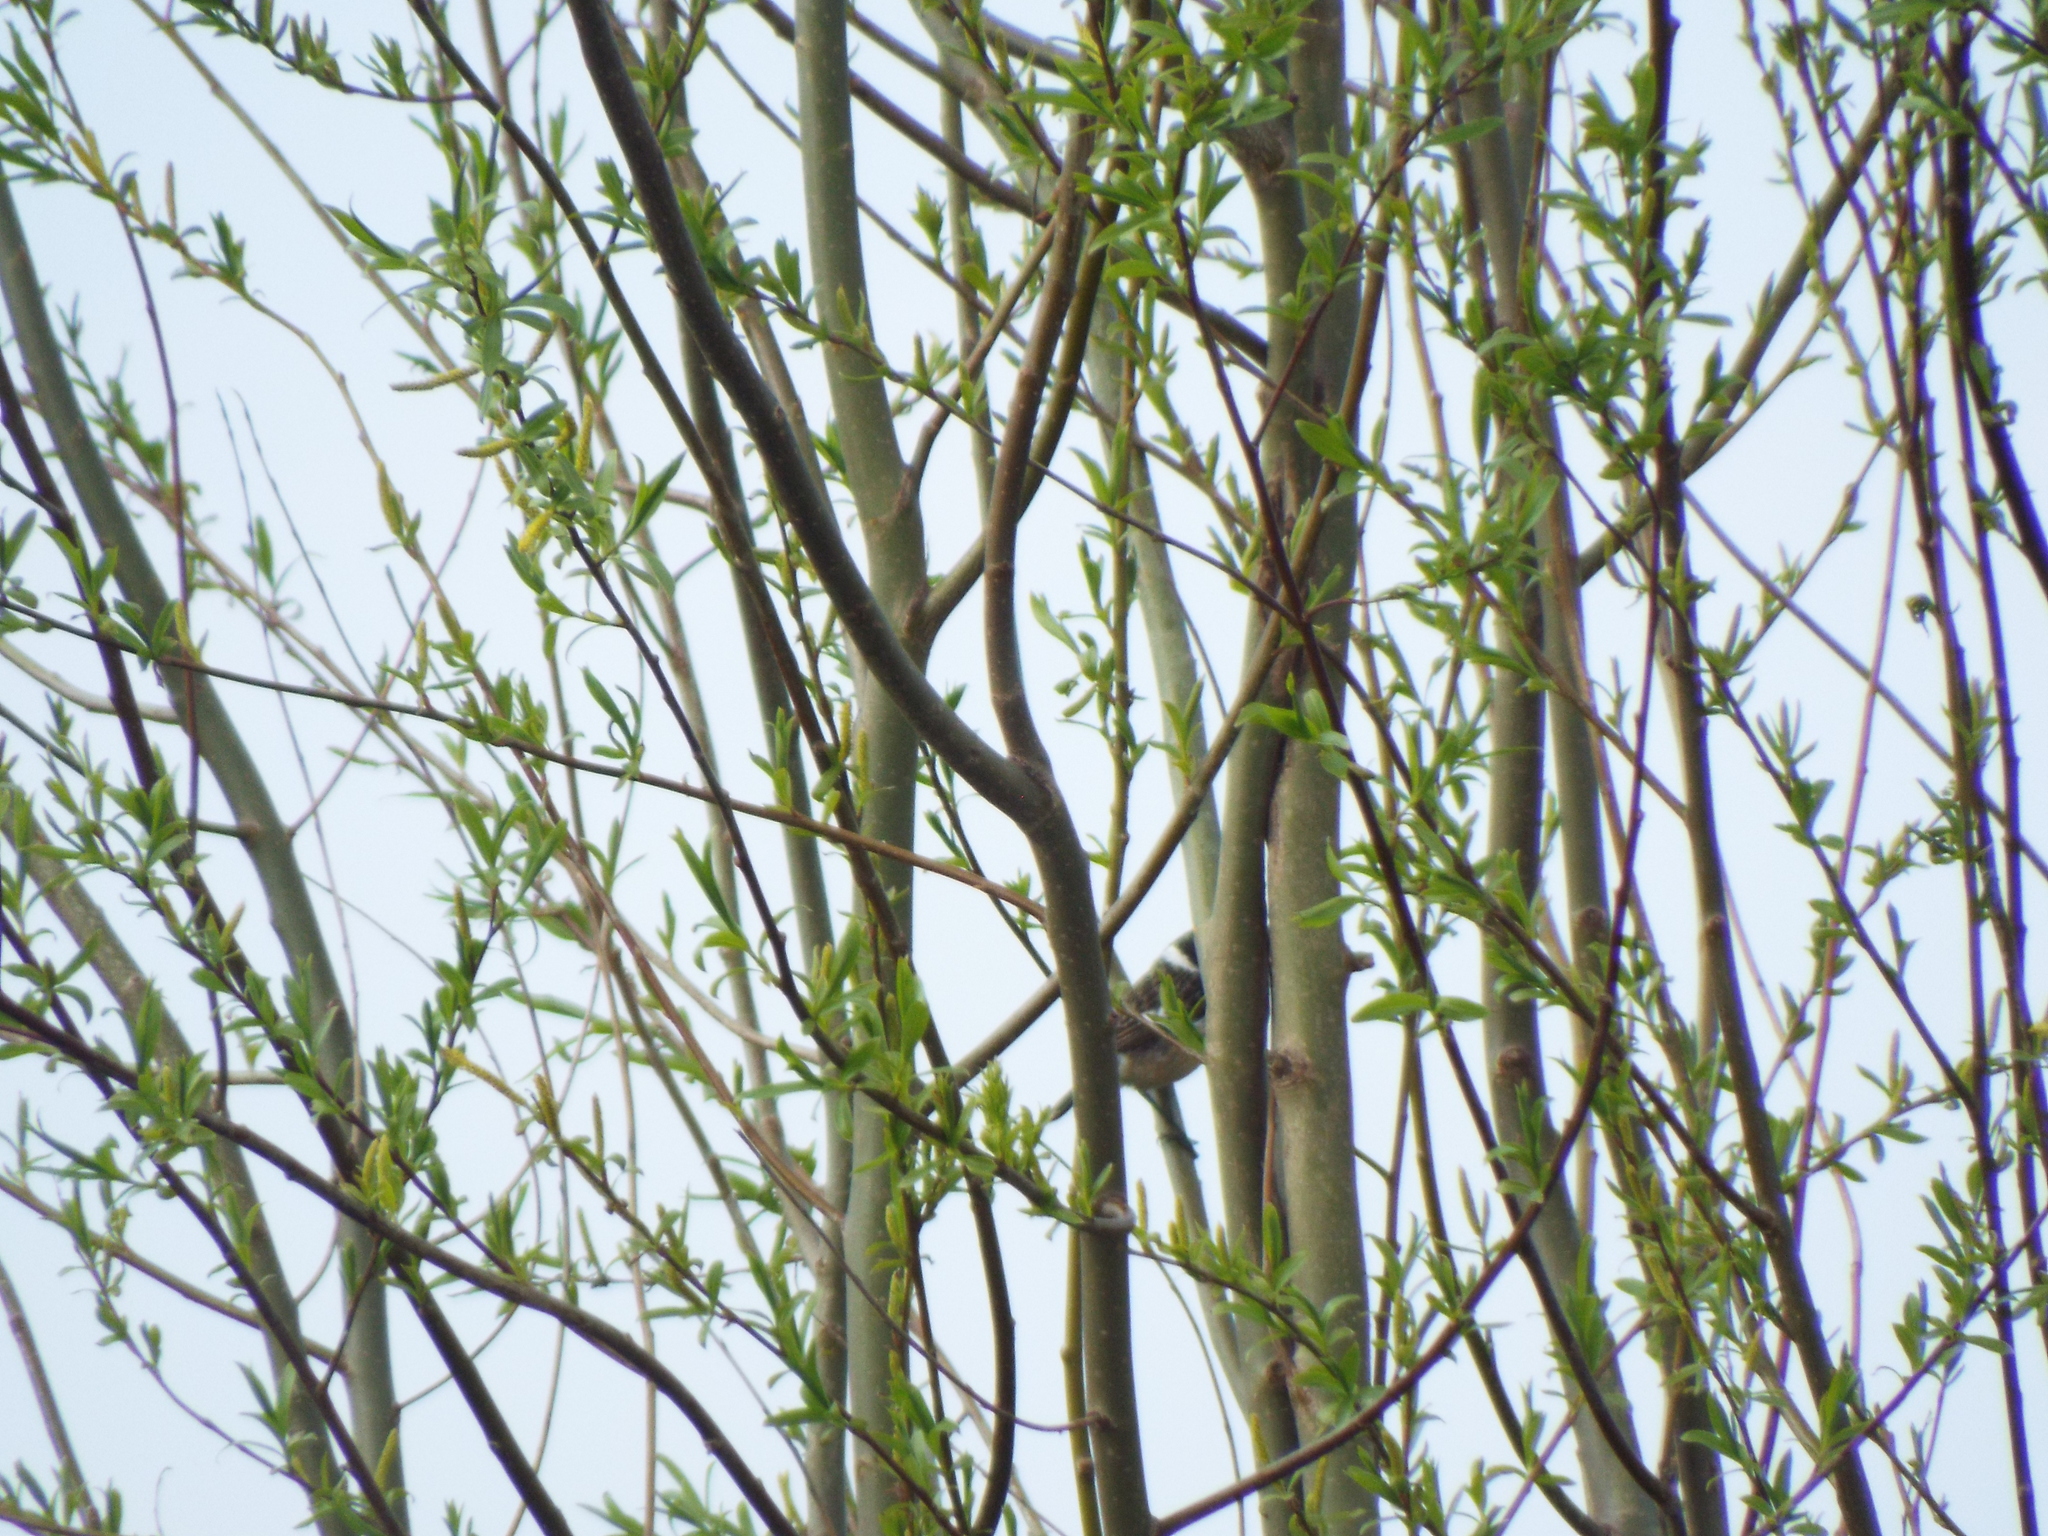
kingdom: Animalia
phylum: Chordata
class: Aves
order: Passeriformes
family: Emberizidae
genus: Emberiza
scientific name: Emberiza schoeniclus
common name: Reed bunting
